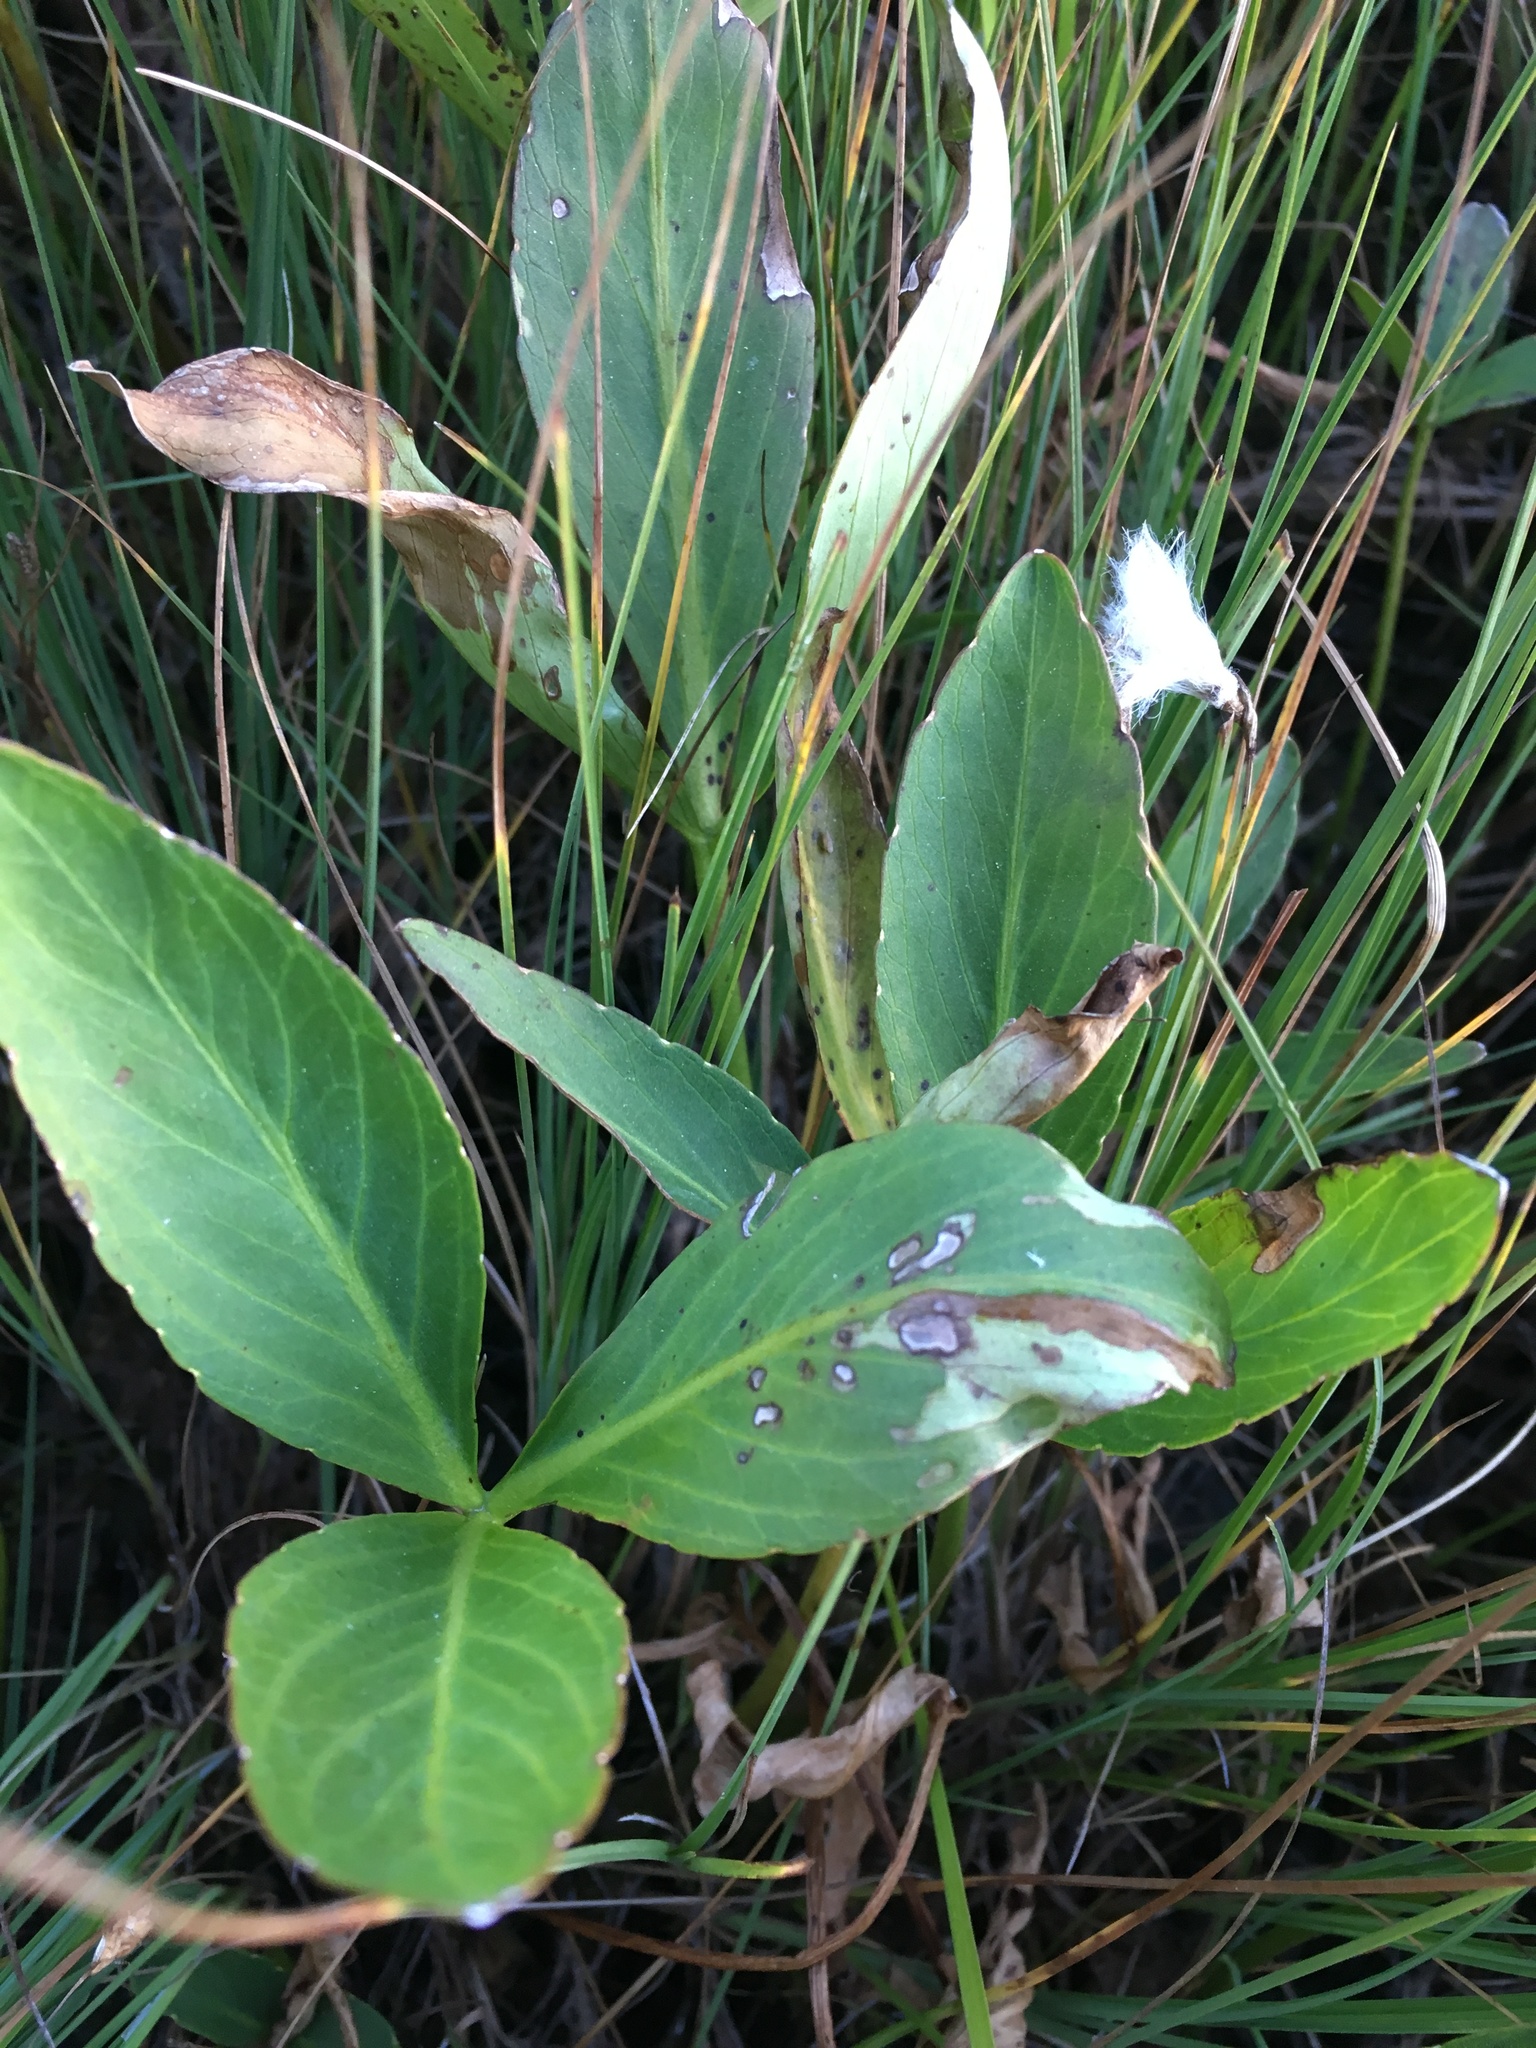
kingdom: Plantae
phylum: Tracheophyta
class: Magnoliopsida
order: Asterales
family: Menyanthaceae
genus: Menyanthes
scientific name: Menyanthes trifoliata
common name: Bogbean
